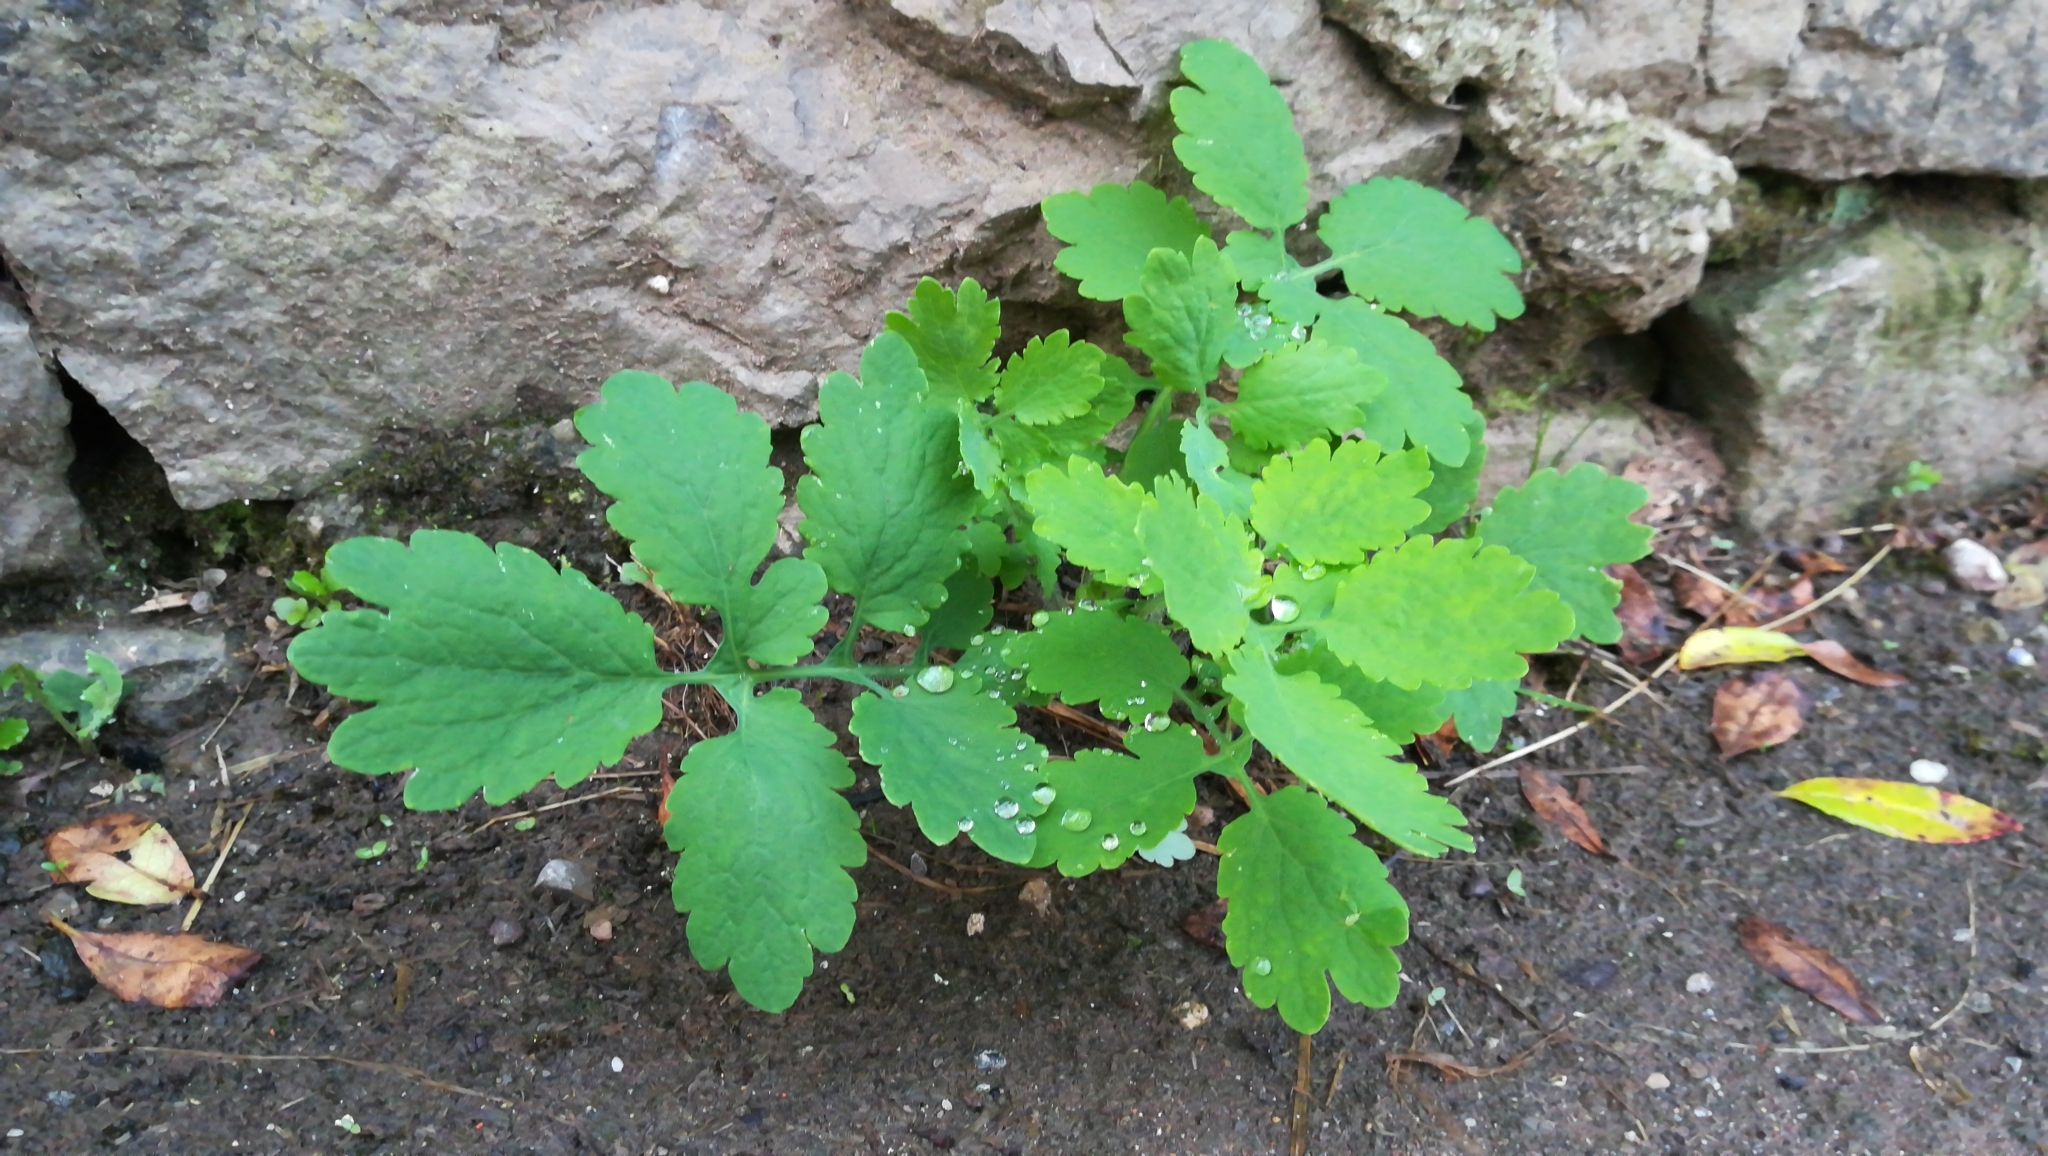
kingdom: Plantae
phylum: Tracheophyta
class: Magnoliopsida
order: Ranunculales
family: Papaveraceae
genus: Chelidonium
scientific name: Chelidonium majus
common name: Greater celandine
